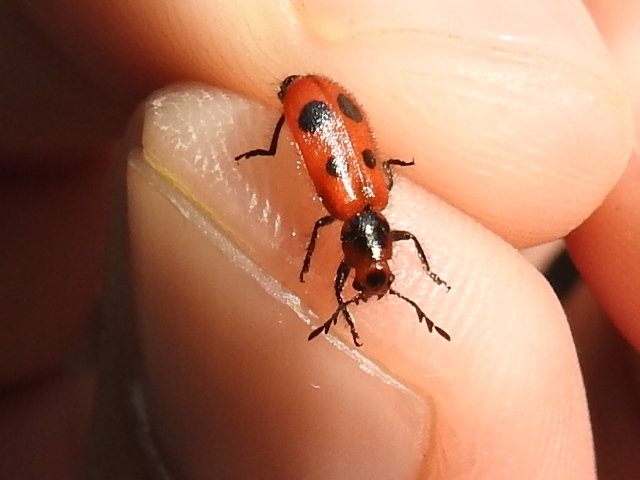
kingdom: Animalia
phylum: Arthropoda
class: Insecta
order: Coleoptera
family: Cleridae
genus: Pelonides
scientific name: Pelonides
